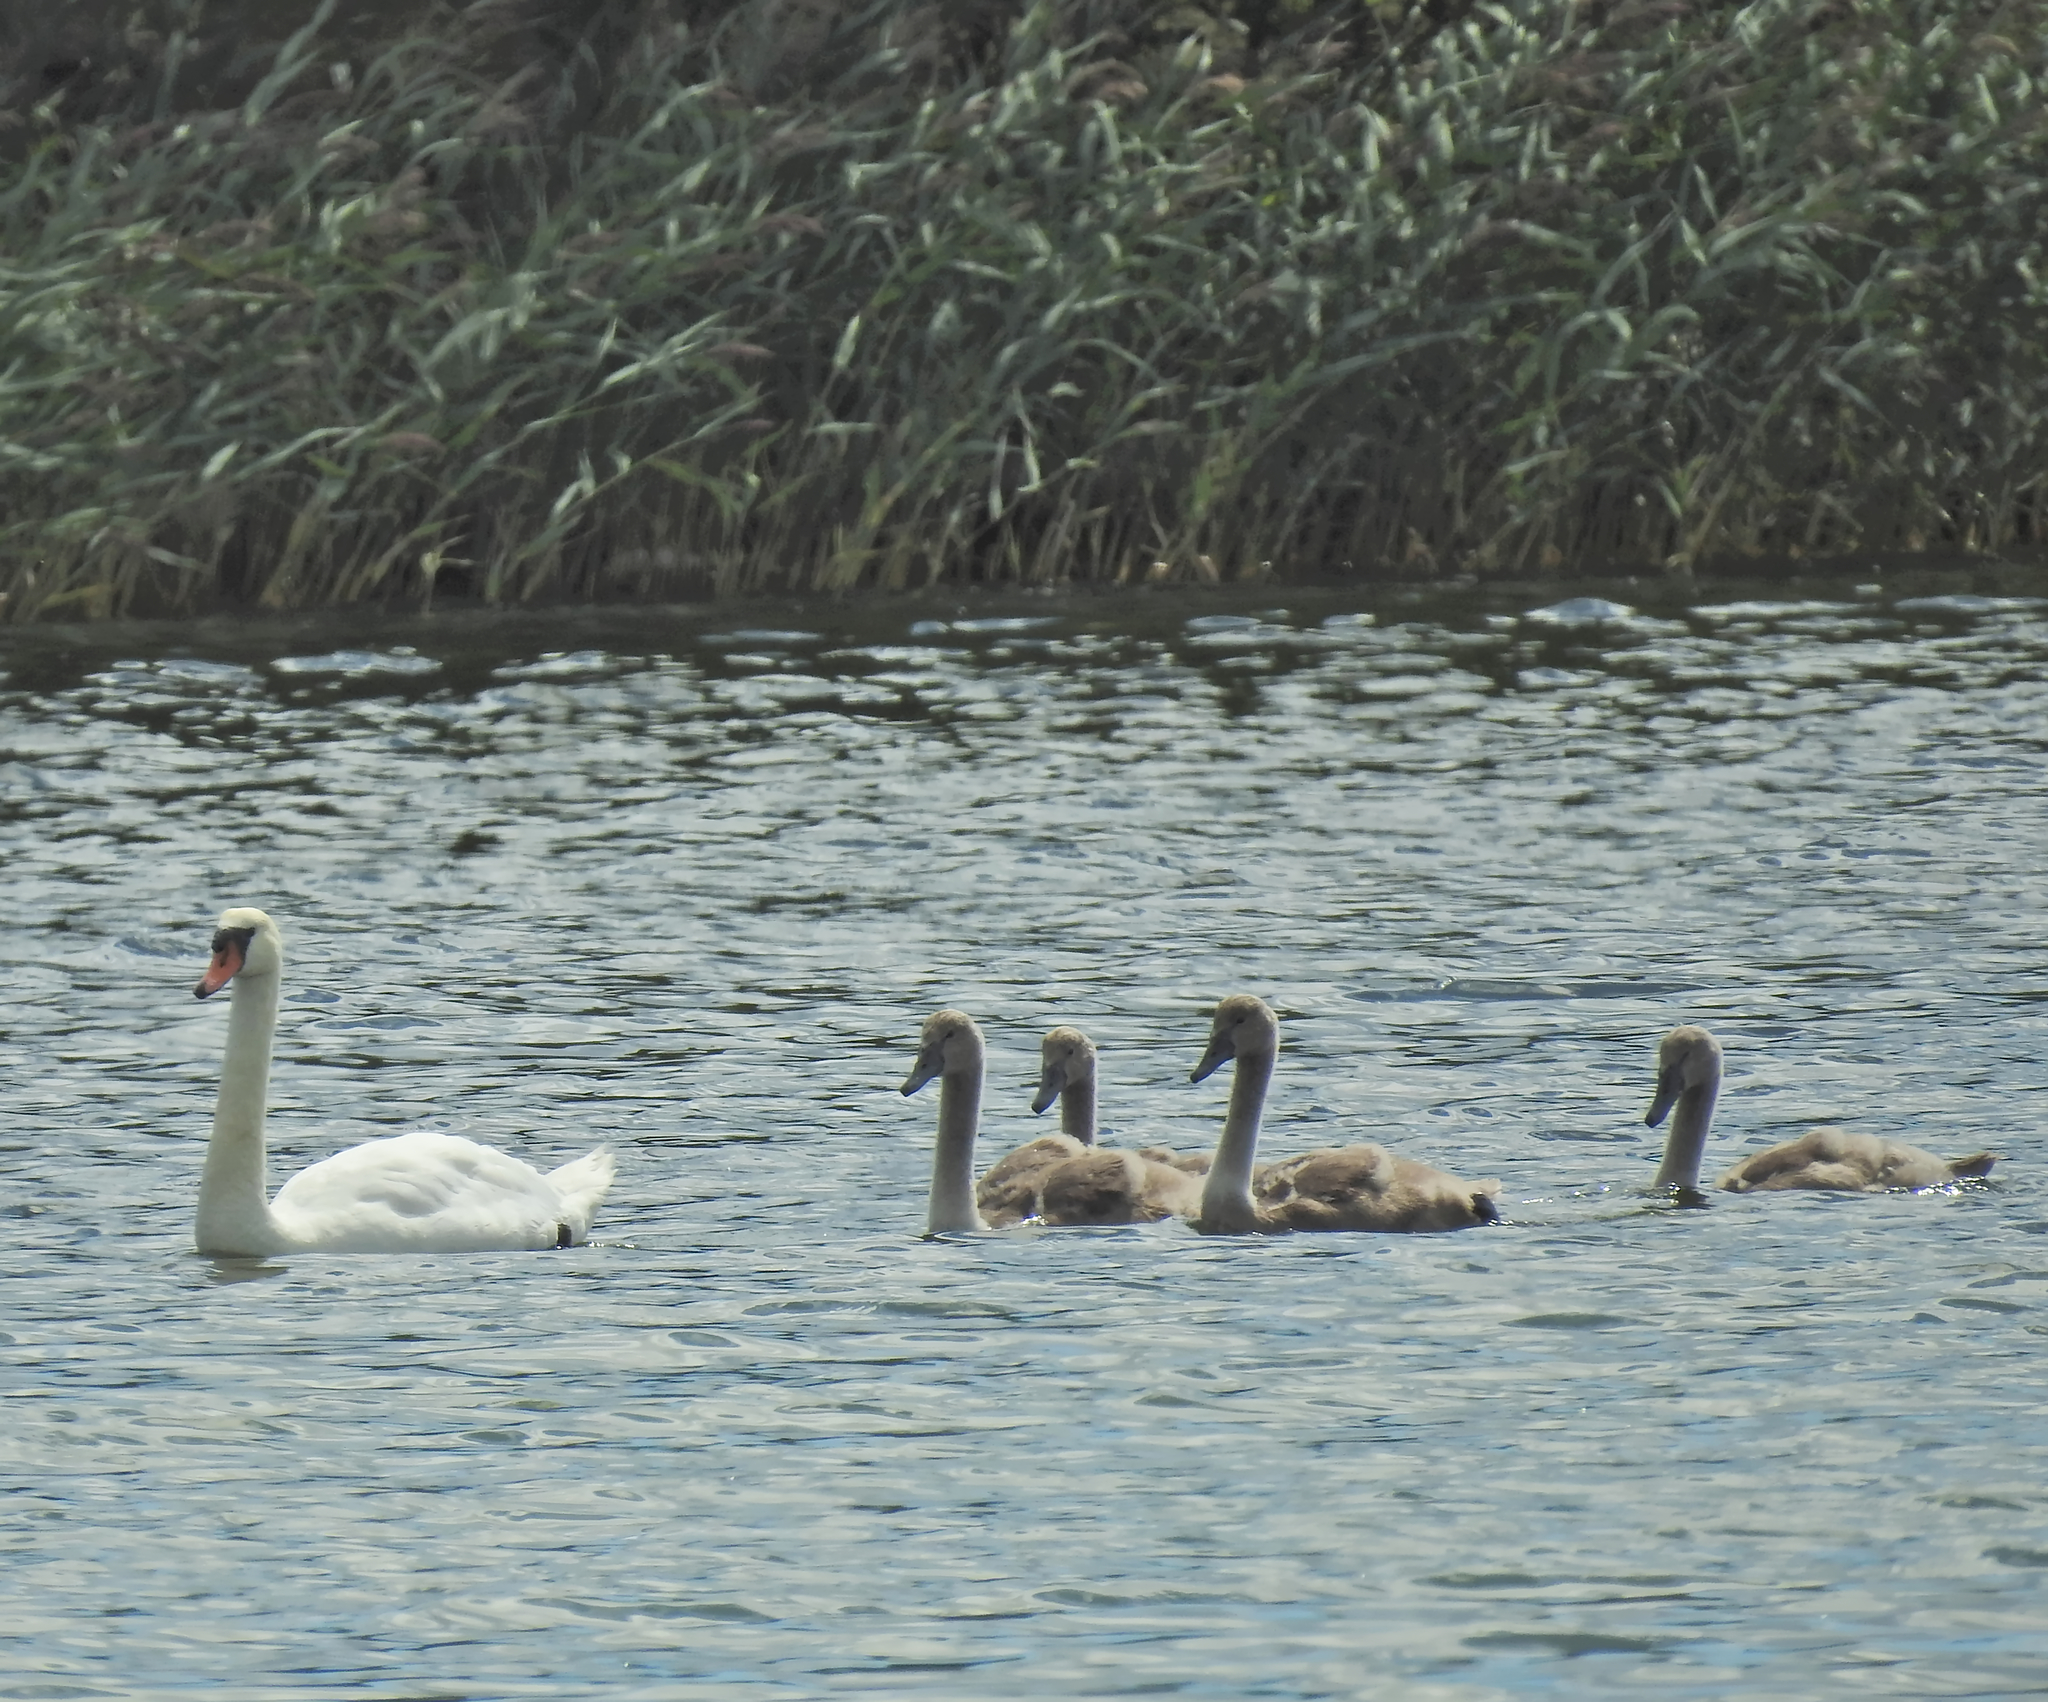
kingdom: Animalia
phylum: Chordata
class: Aves
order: Anseriformes
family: Anatidae
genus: Cygnus
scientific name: Cygnus olor
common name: Mute swan
